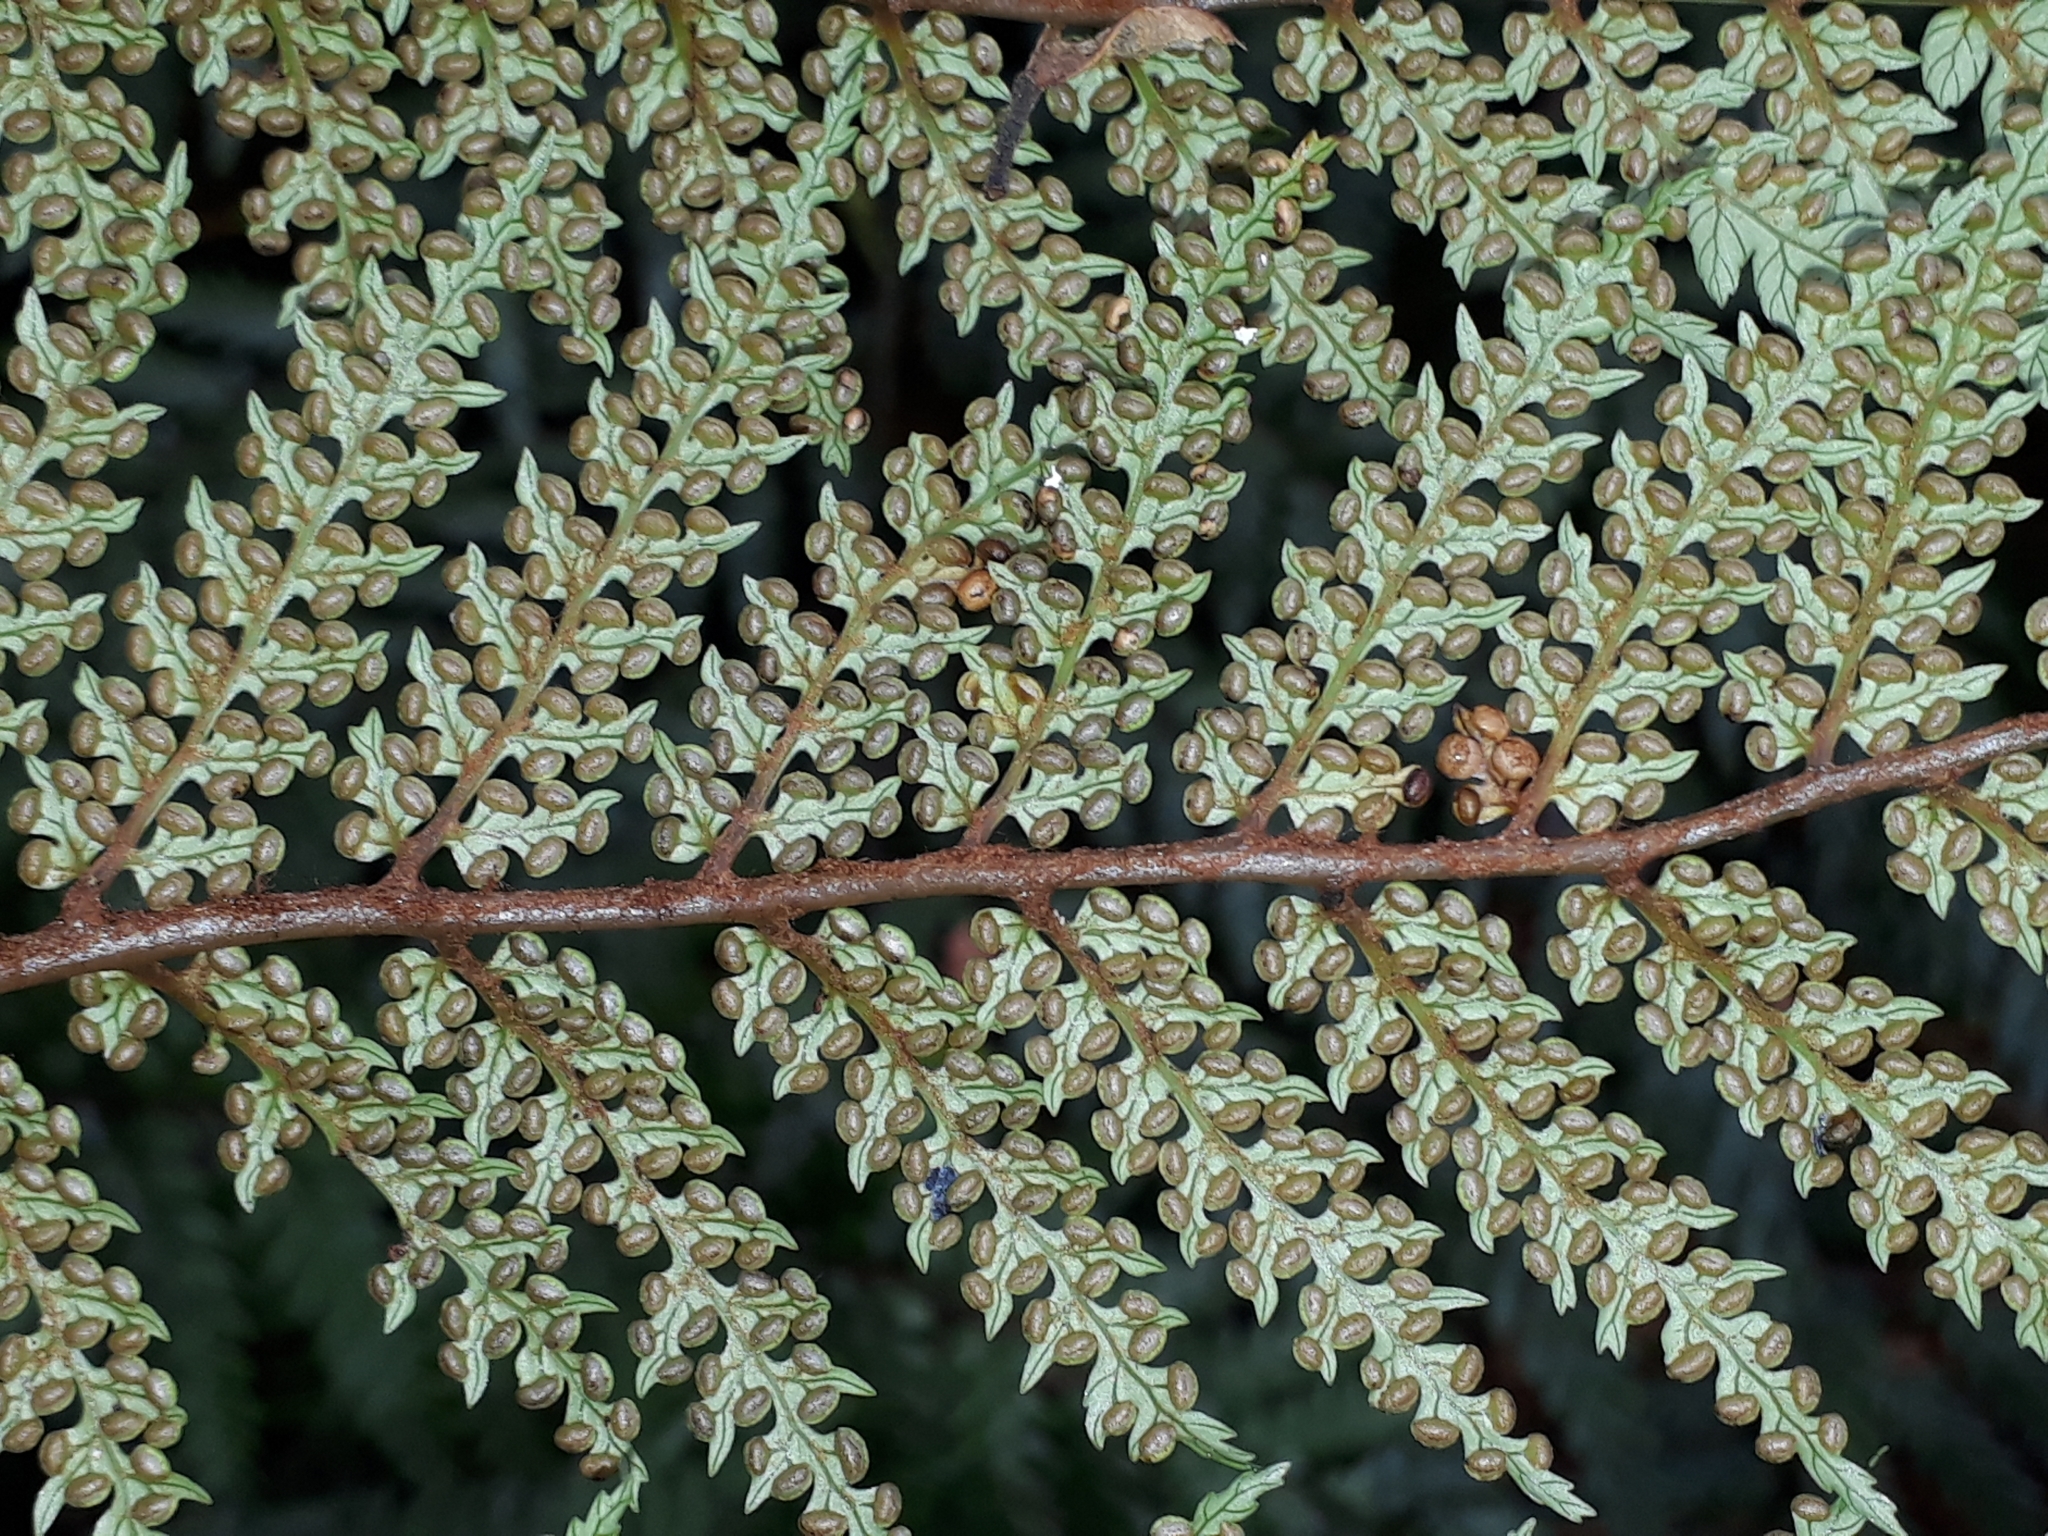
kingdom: Plantae
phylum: Tracheophyta
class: Polypodiopsida
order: Cyatheales
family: Dicksoniaceae
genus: Dicksonia
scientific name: Dicksonia lanata
